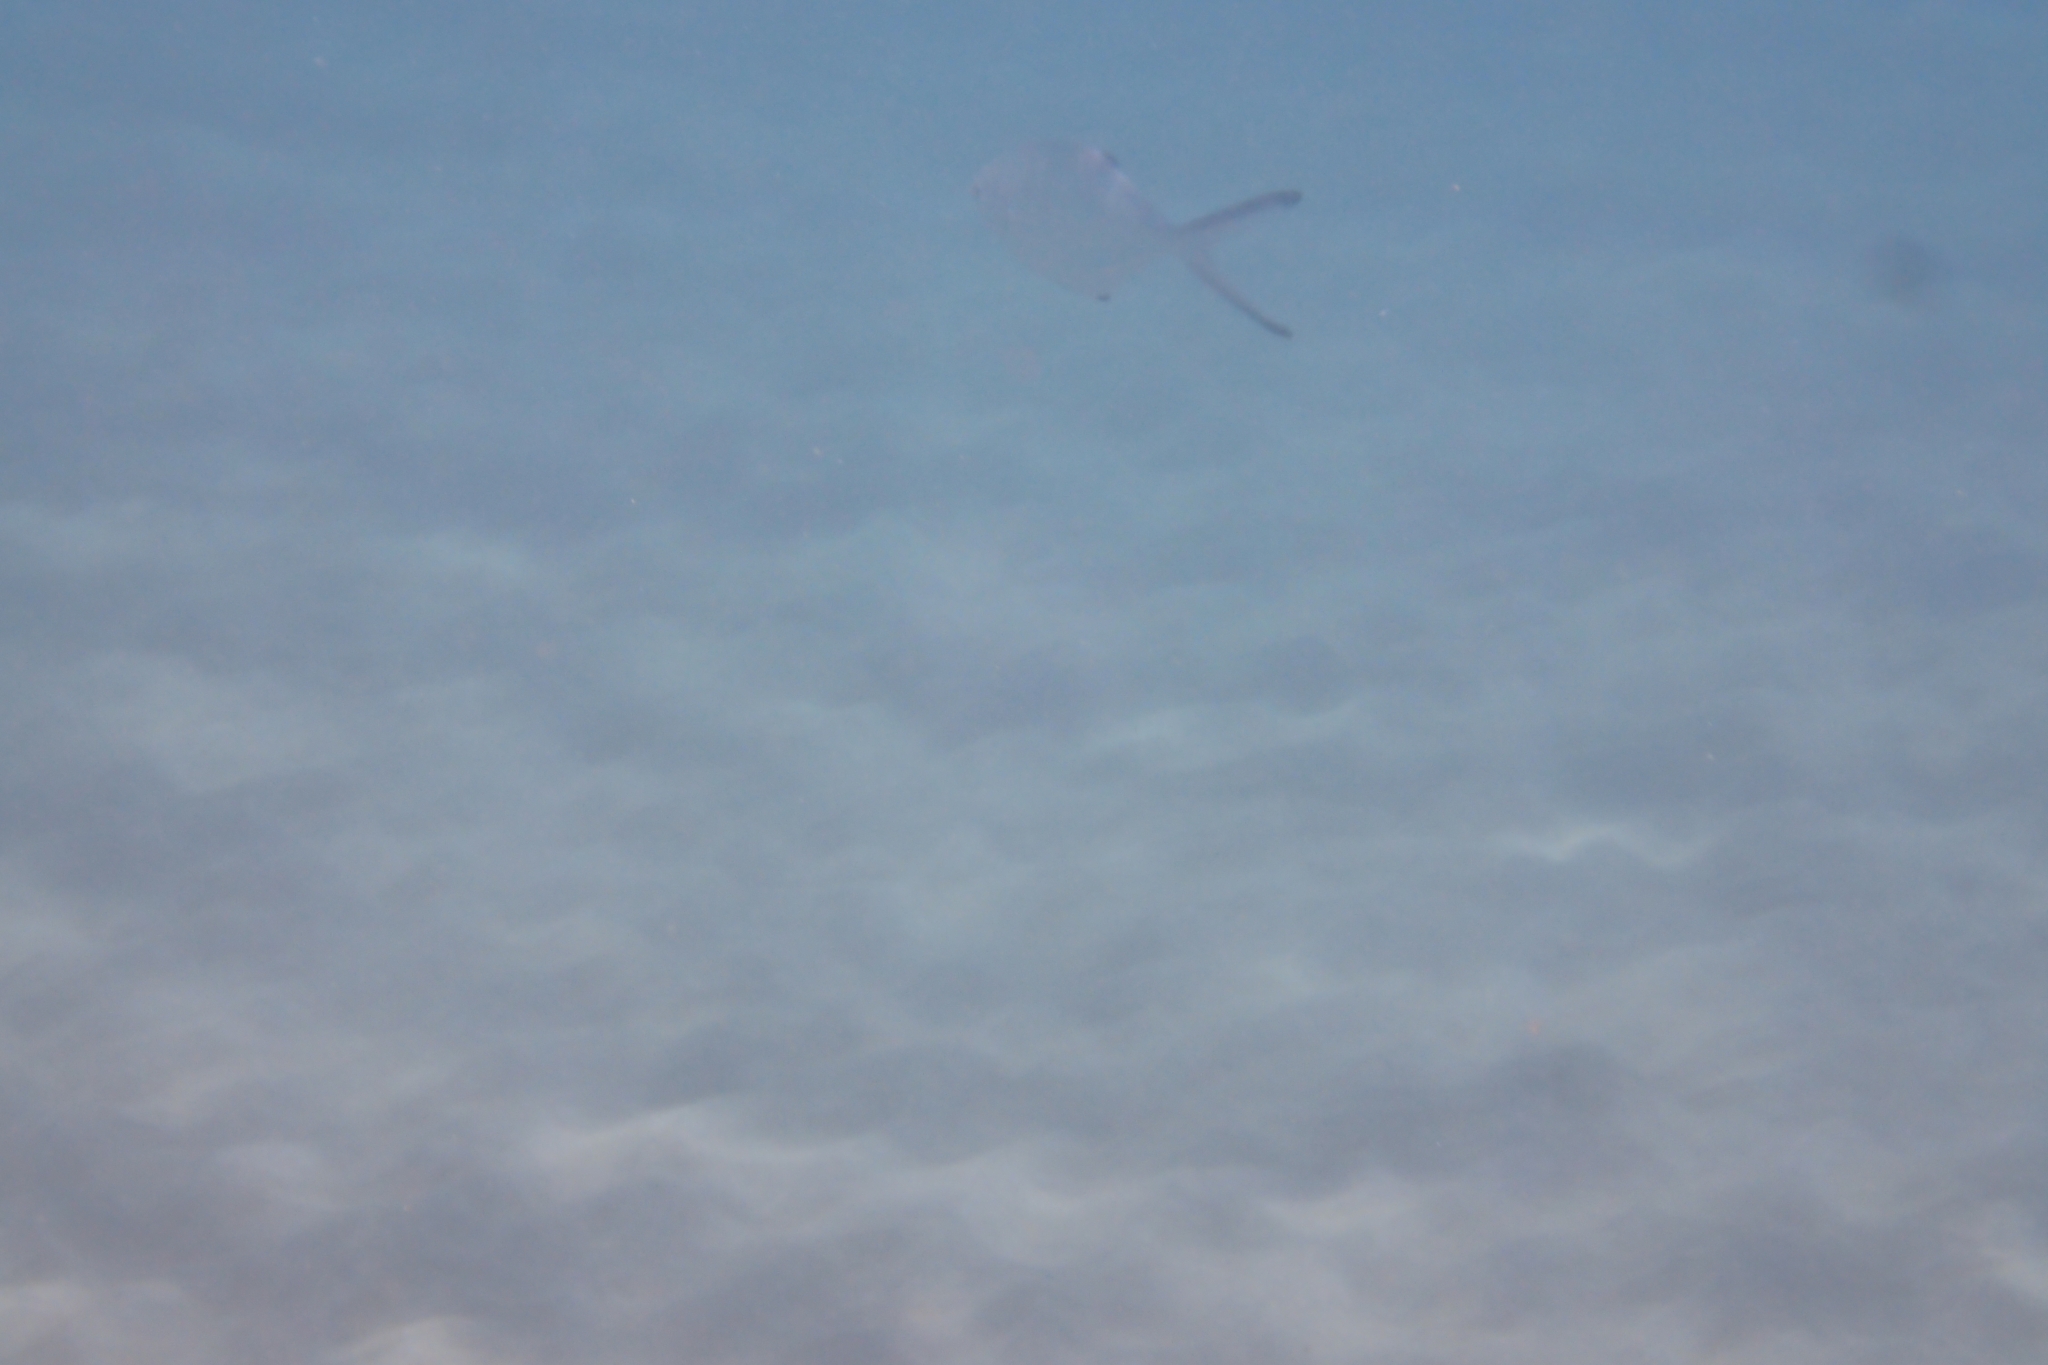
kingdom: Animalia
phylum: Chordata
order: Perciformes
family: Carangidae
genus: Trachinotus
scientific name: Trachinotus ovatus
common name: Pompano
